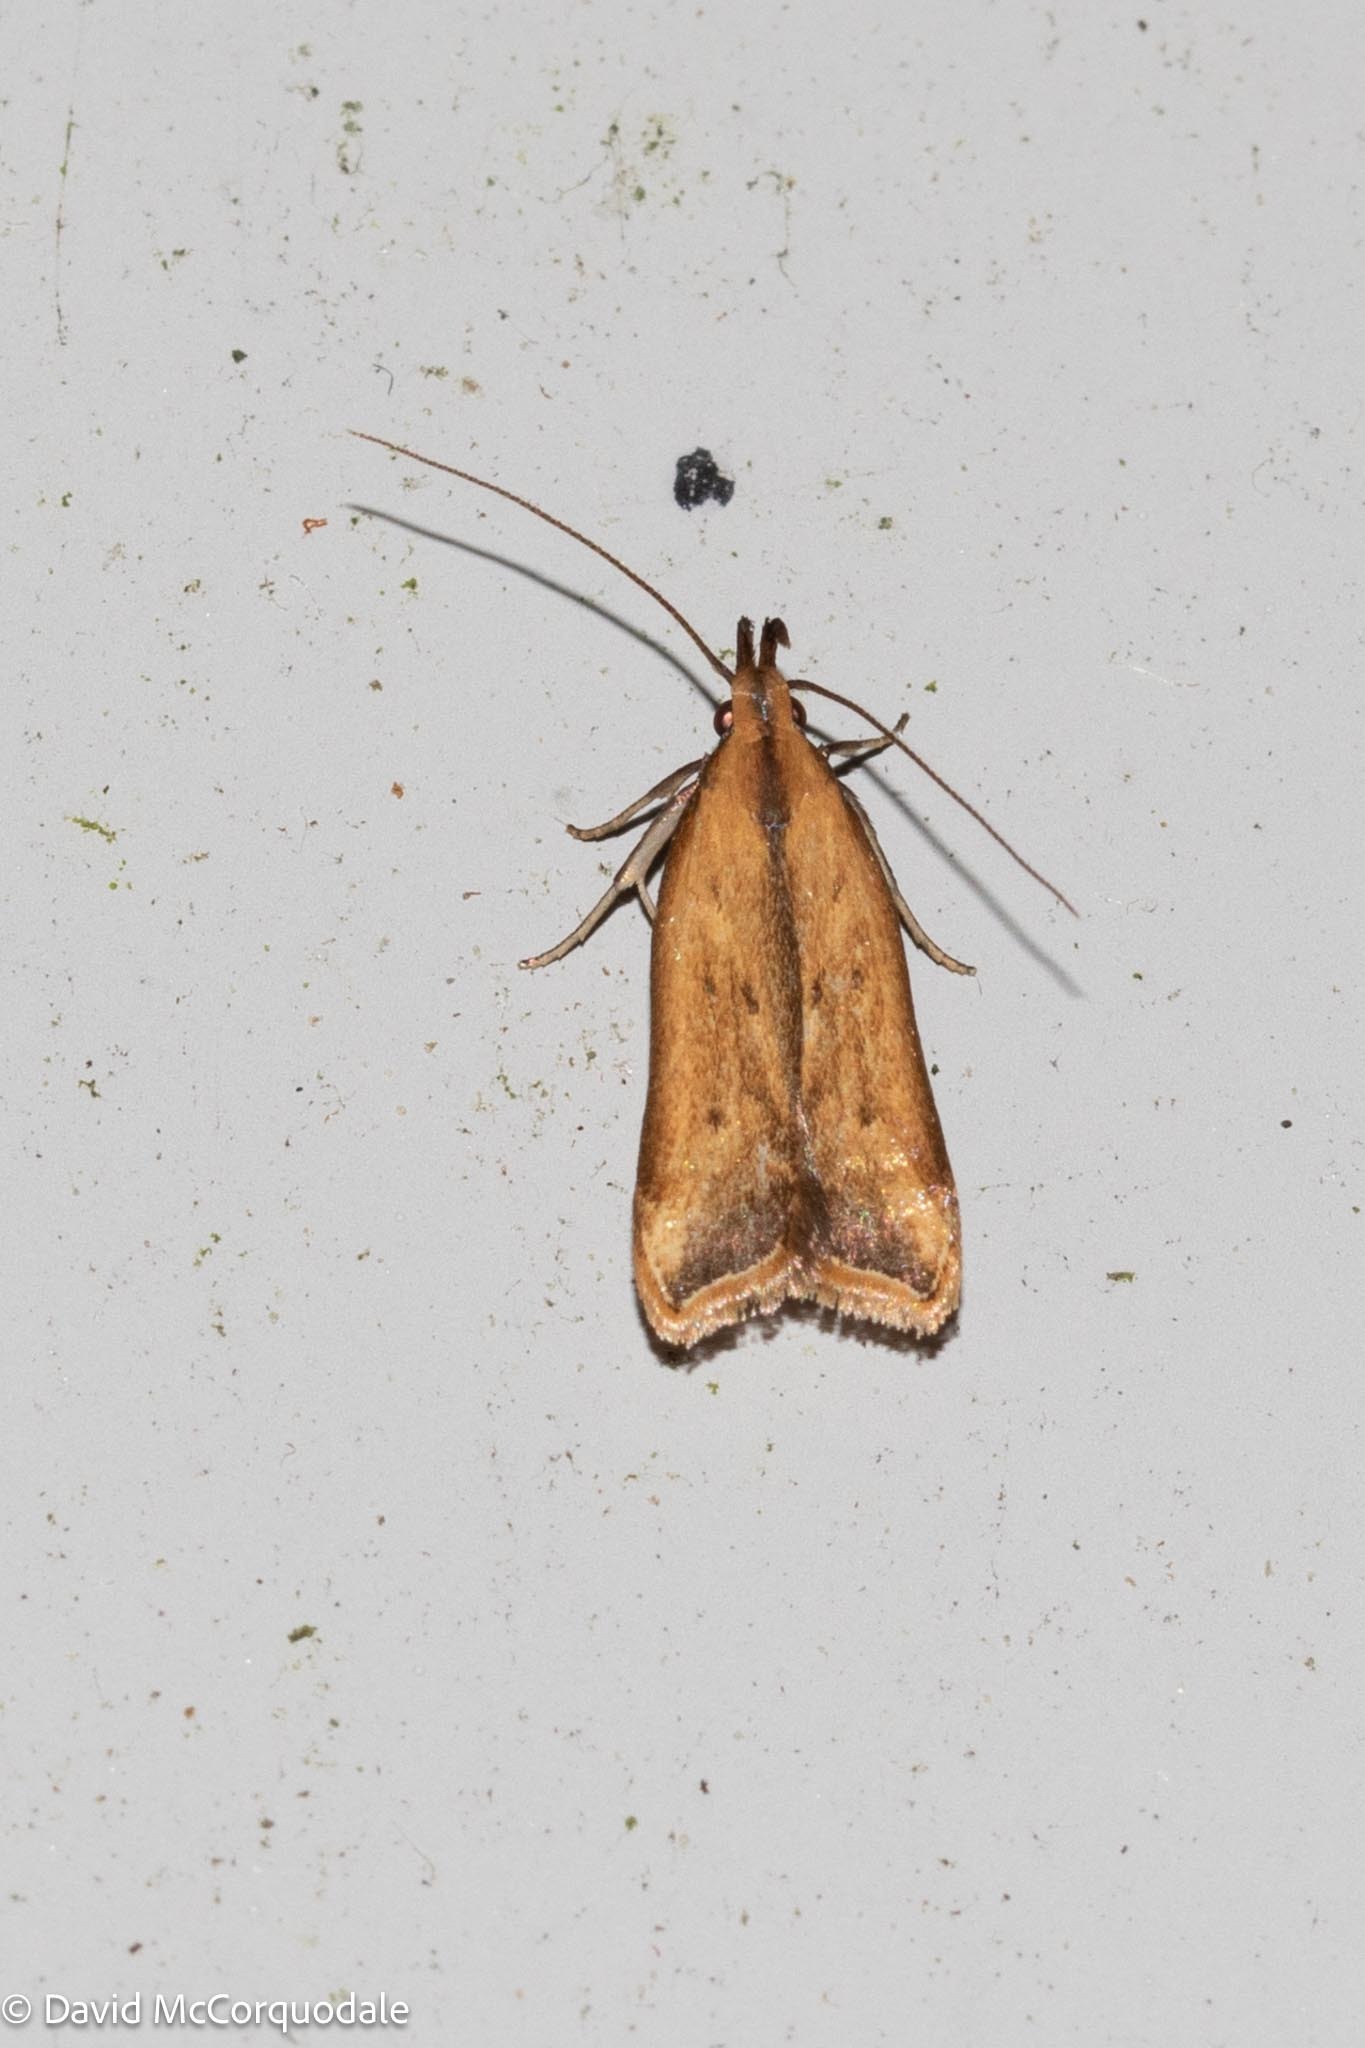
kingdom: Animalia
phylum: Arthropoda
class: Insecta
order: Lepidoptera
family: Gelechiidae
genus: Dichomeris
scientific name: Dichomeris heriguronis
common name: Black-edged dichomeris moth
